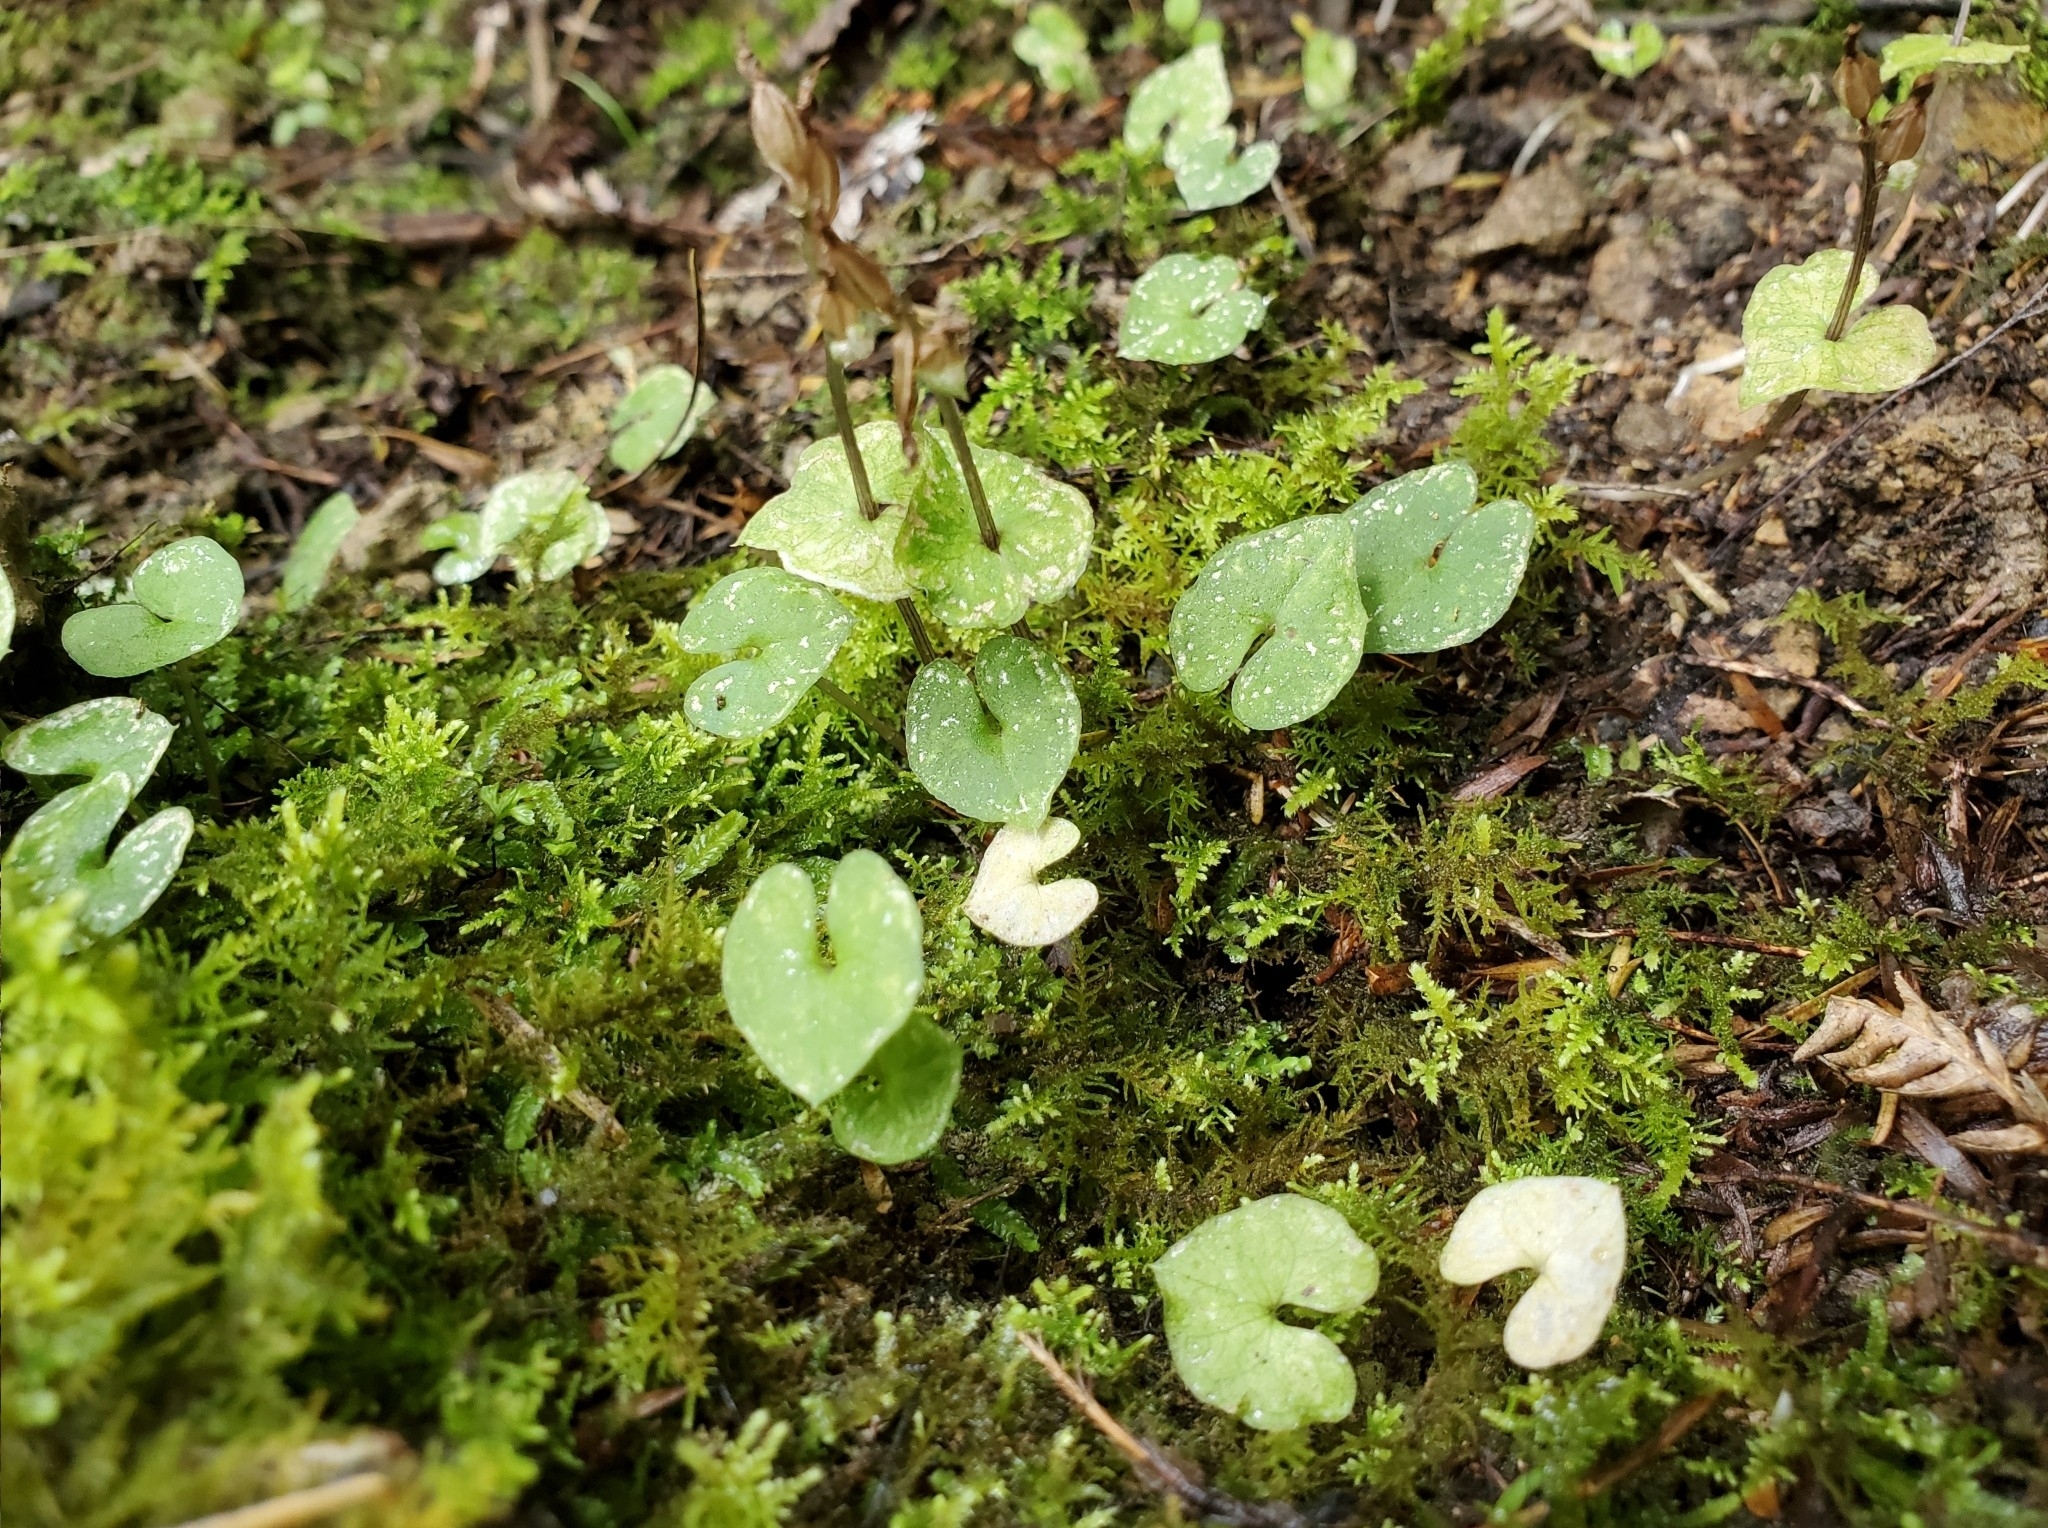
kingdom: Plantae
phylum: Tracheophyta
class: Liliopsida
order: Asparagales
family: Orchidaceae
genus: Acianthus
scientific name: Acianthus sinclairii
